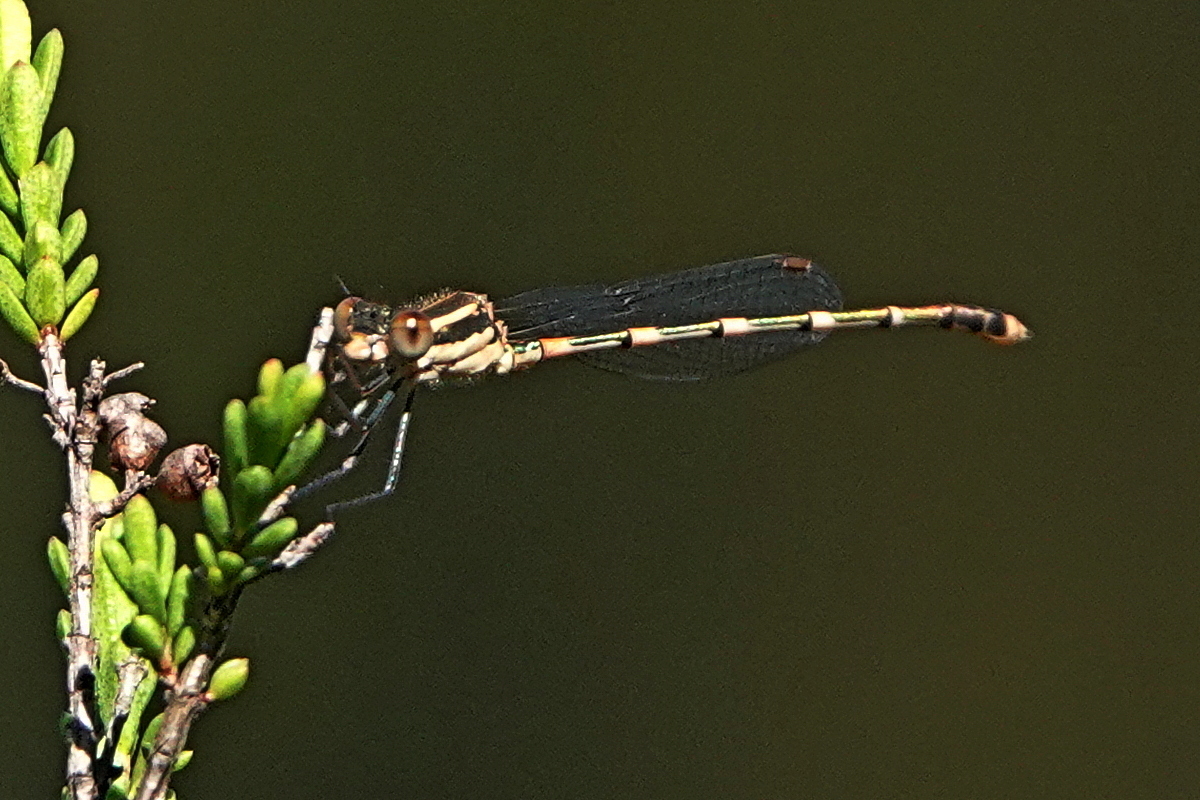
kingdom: Animalia
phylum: Arthropoda
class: Insecta
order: Odonata
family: Lestidae
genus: Austrolestes
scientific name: Austrolestes leda
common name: Wandering ringtail
